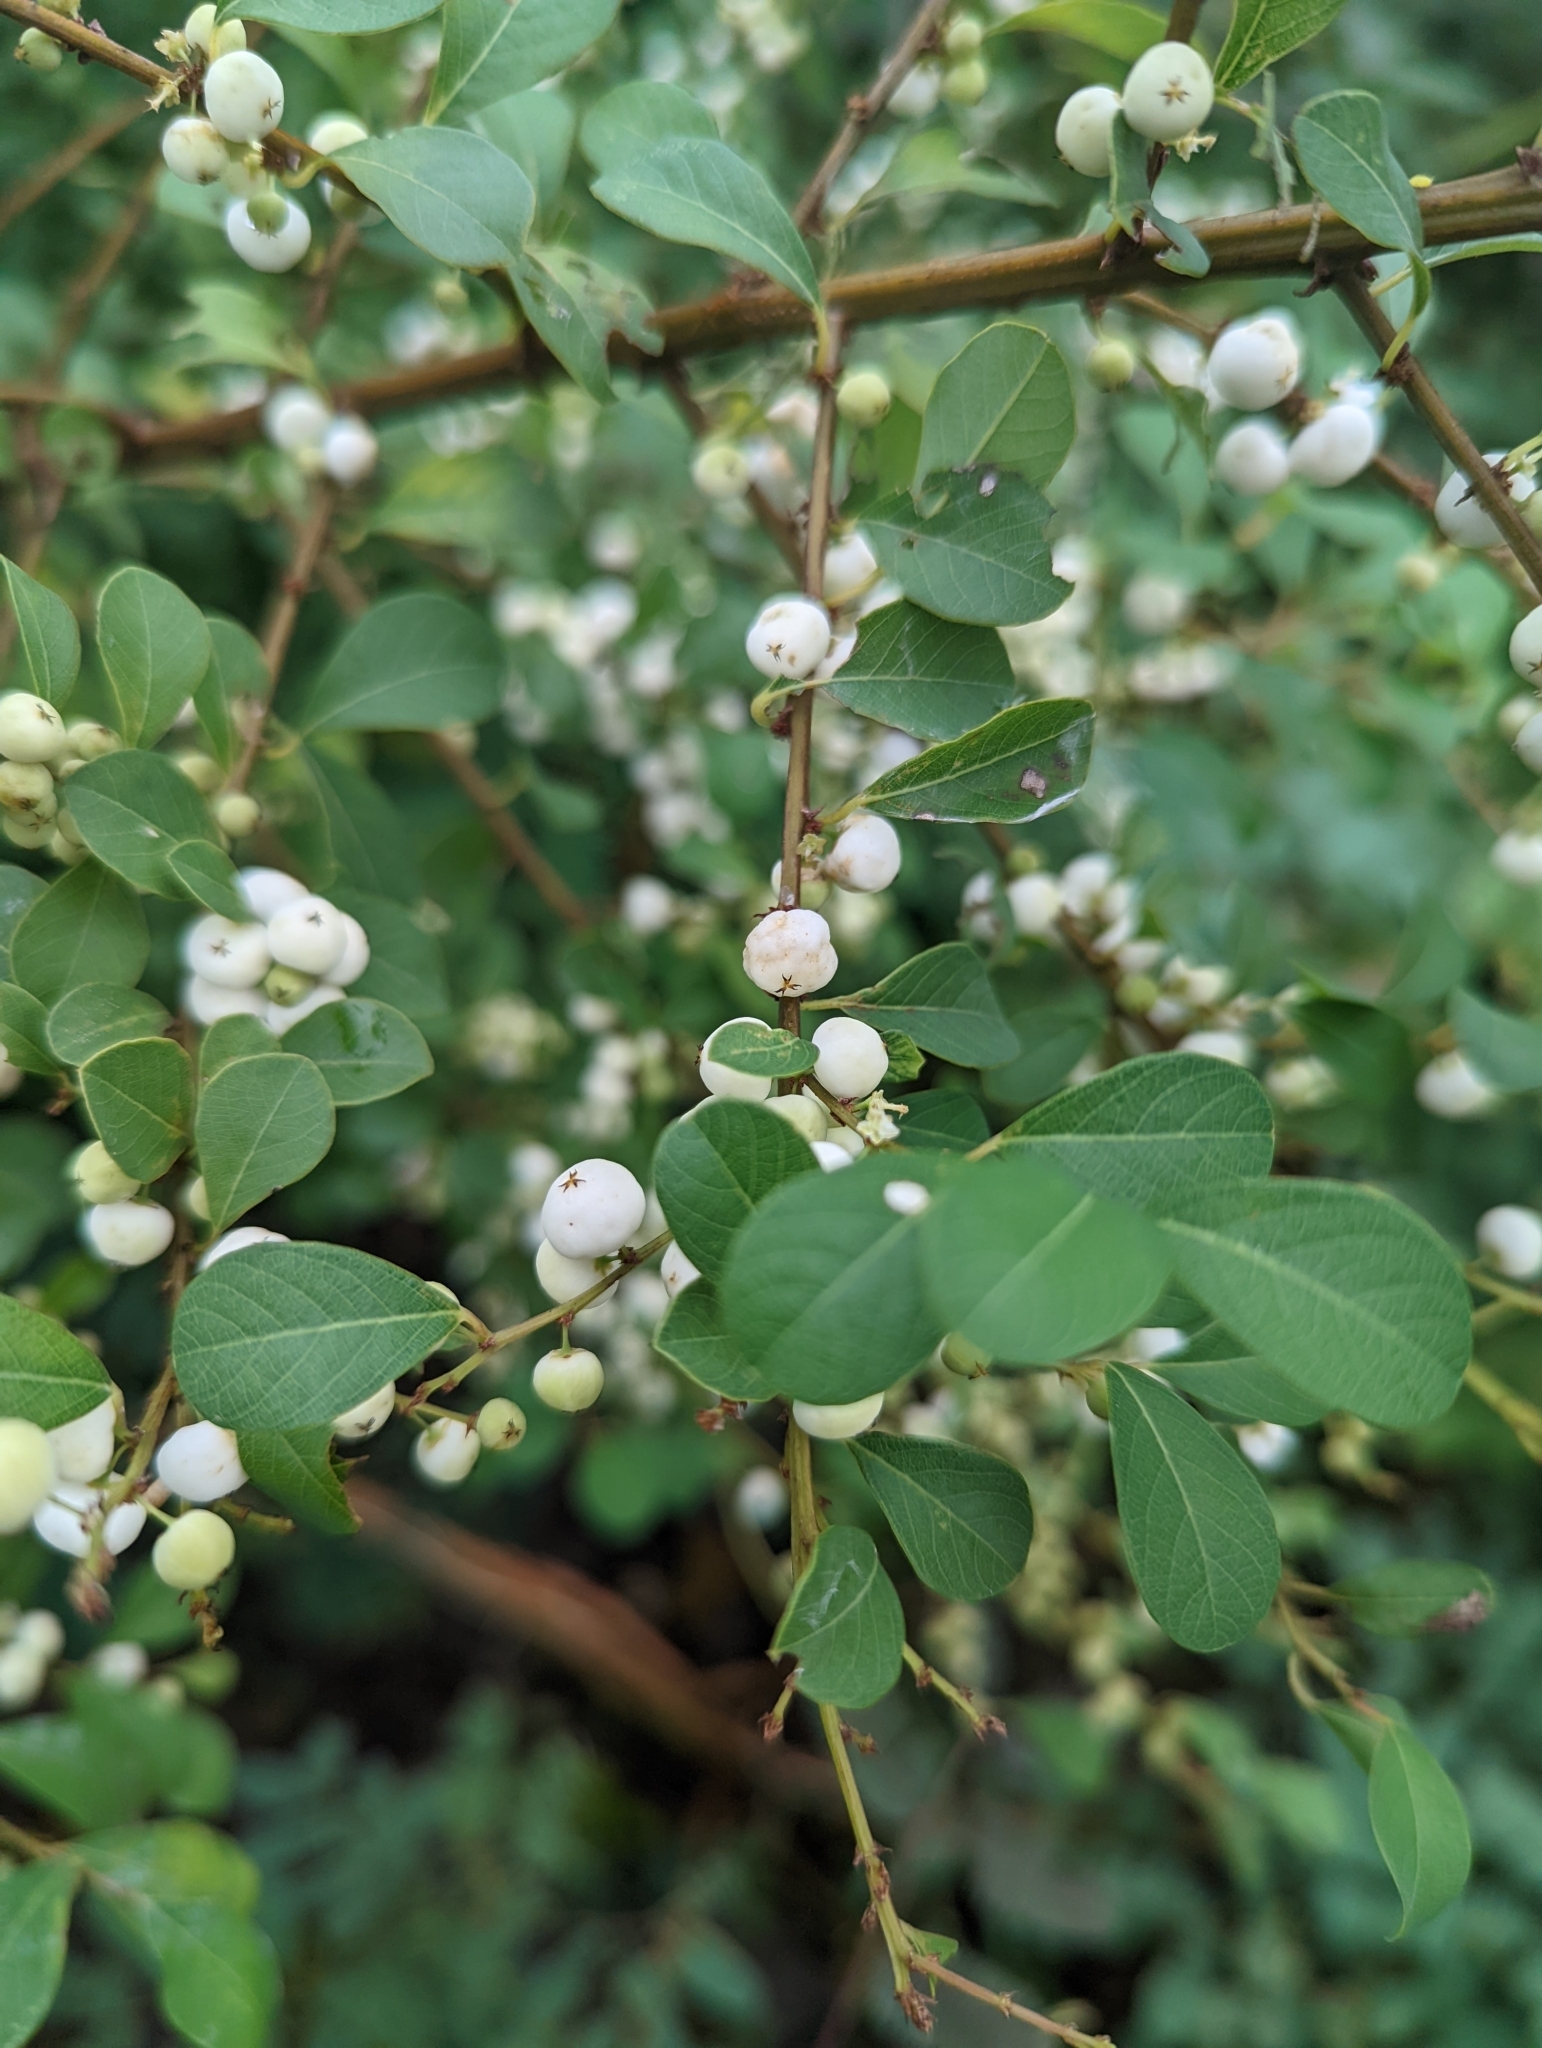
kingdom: Plantae
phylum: Tracheophyta
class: Magnoliopsida
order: Malpighiales
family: Phyllanthaceae
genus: Flueggea
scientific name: Flueggea virosa
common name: Common bushweed
